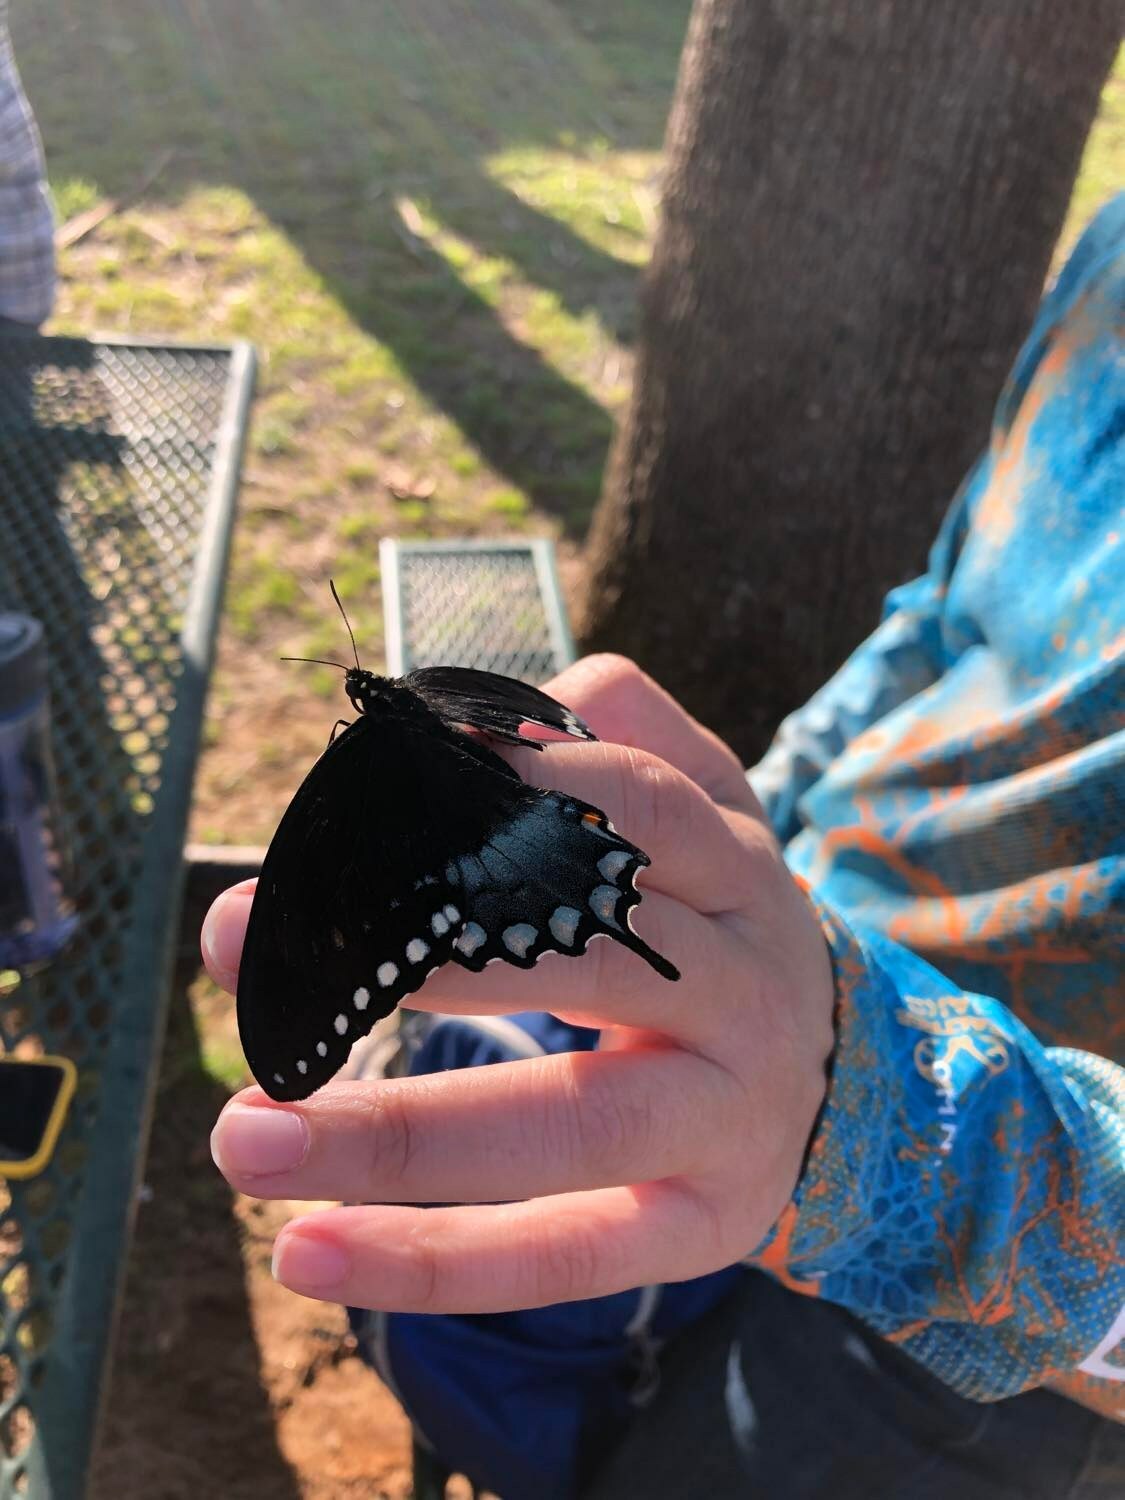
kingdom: Animalia
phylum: Arthropoda
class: Insecta
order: Lepidoptera
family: Papilionidae
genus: Papilio
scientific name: Papilio troilus
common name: Spicebush swallowtail
